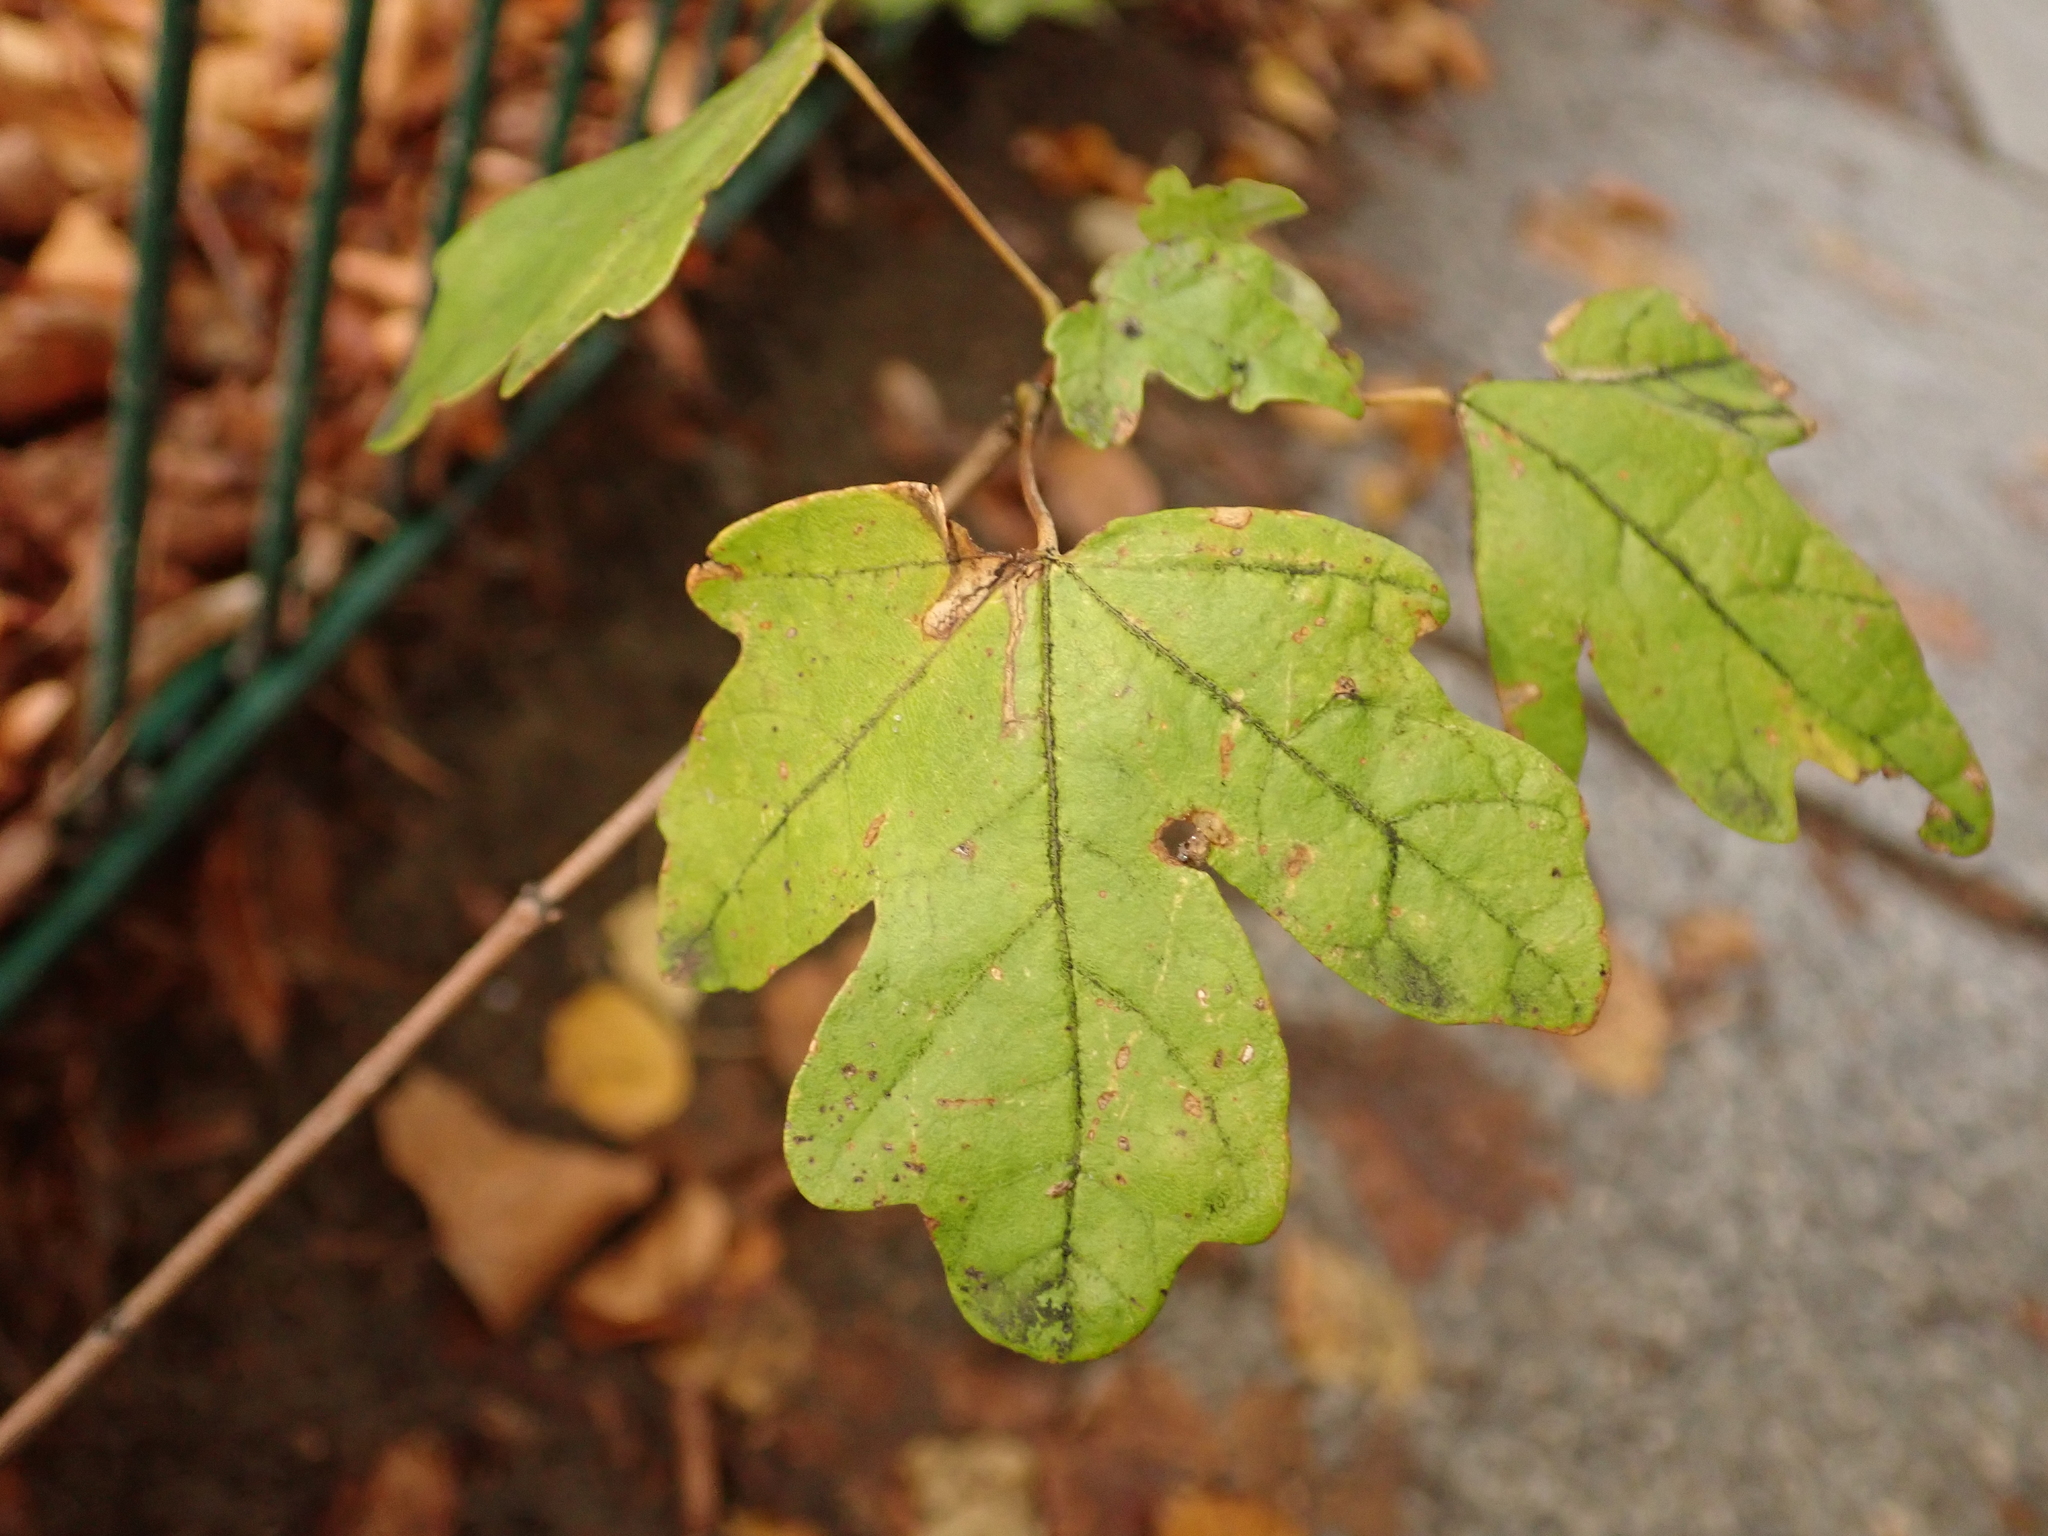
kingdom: Plantae
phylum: Tracheophyta
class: Magnoliopsida
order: Sapindales
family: Sapindaceae
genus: Acer
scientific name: Acer campestre
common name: Field maple
